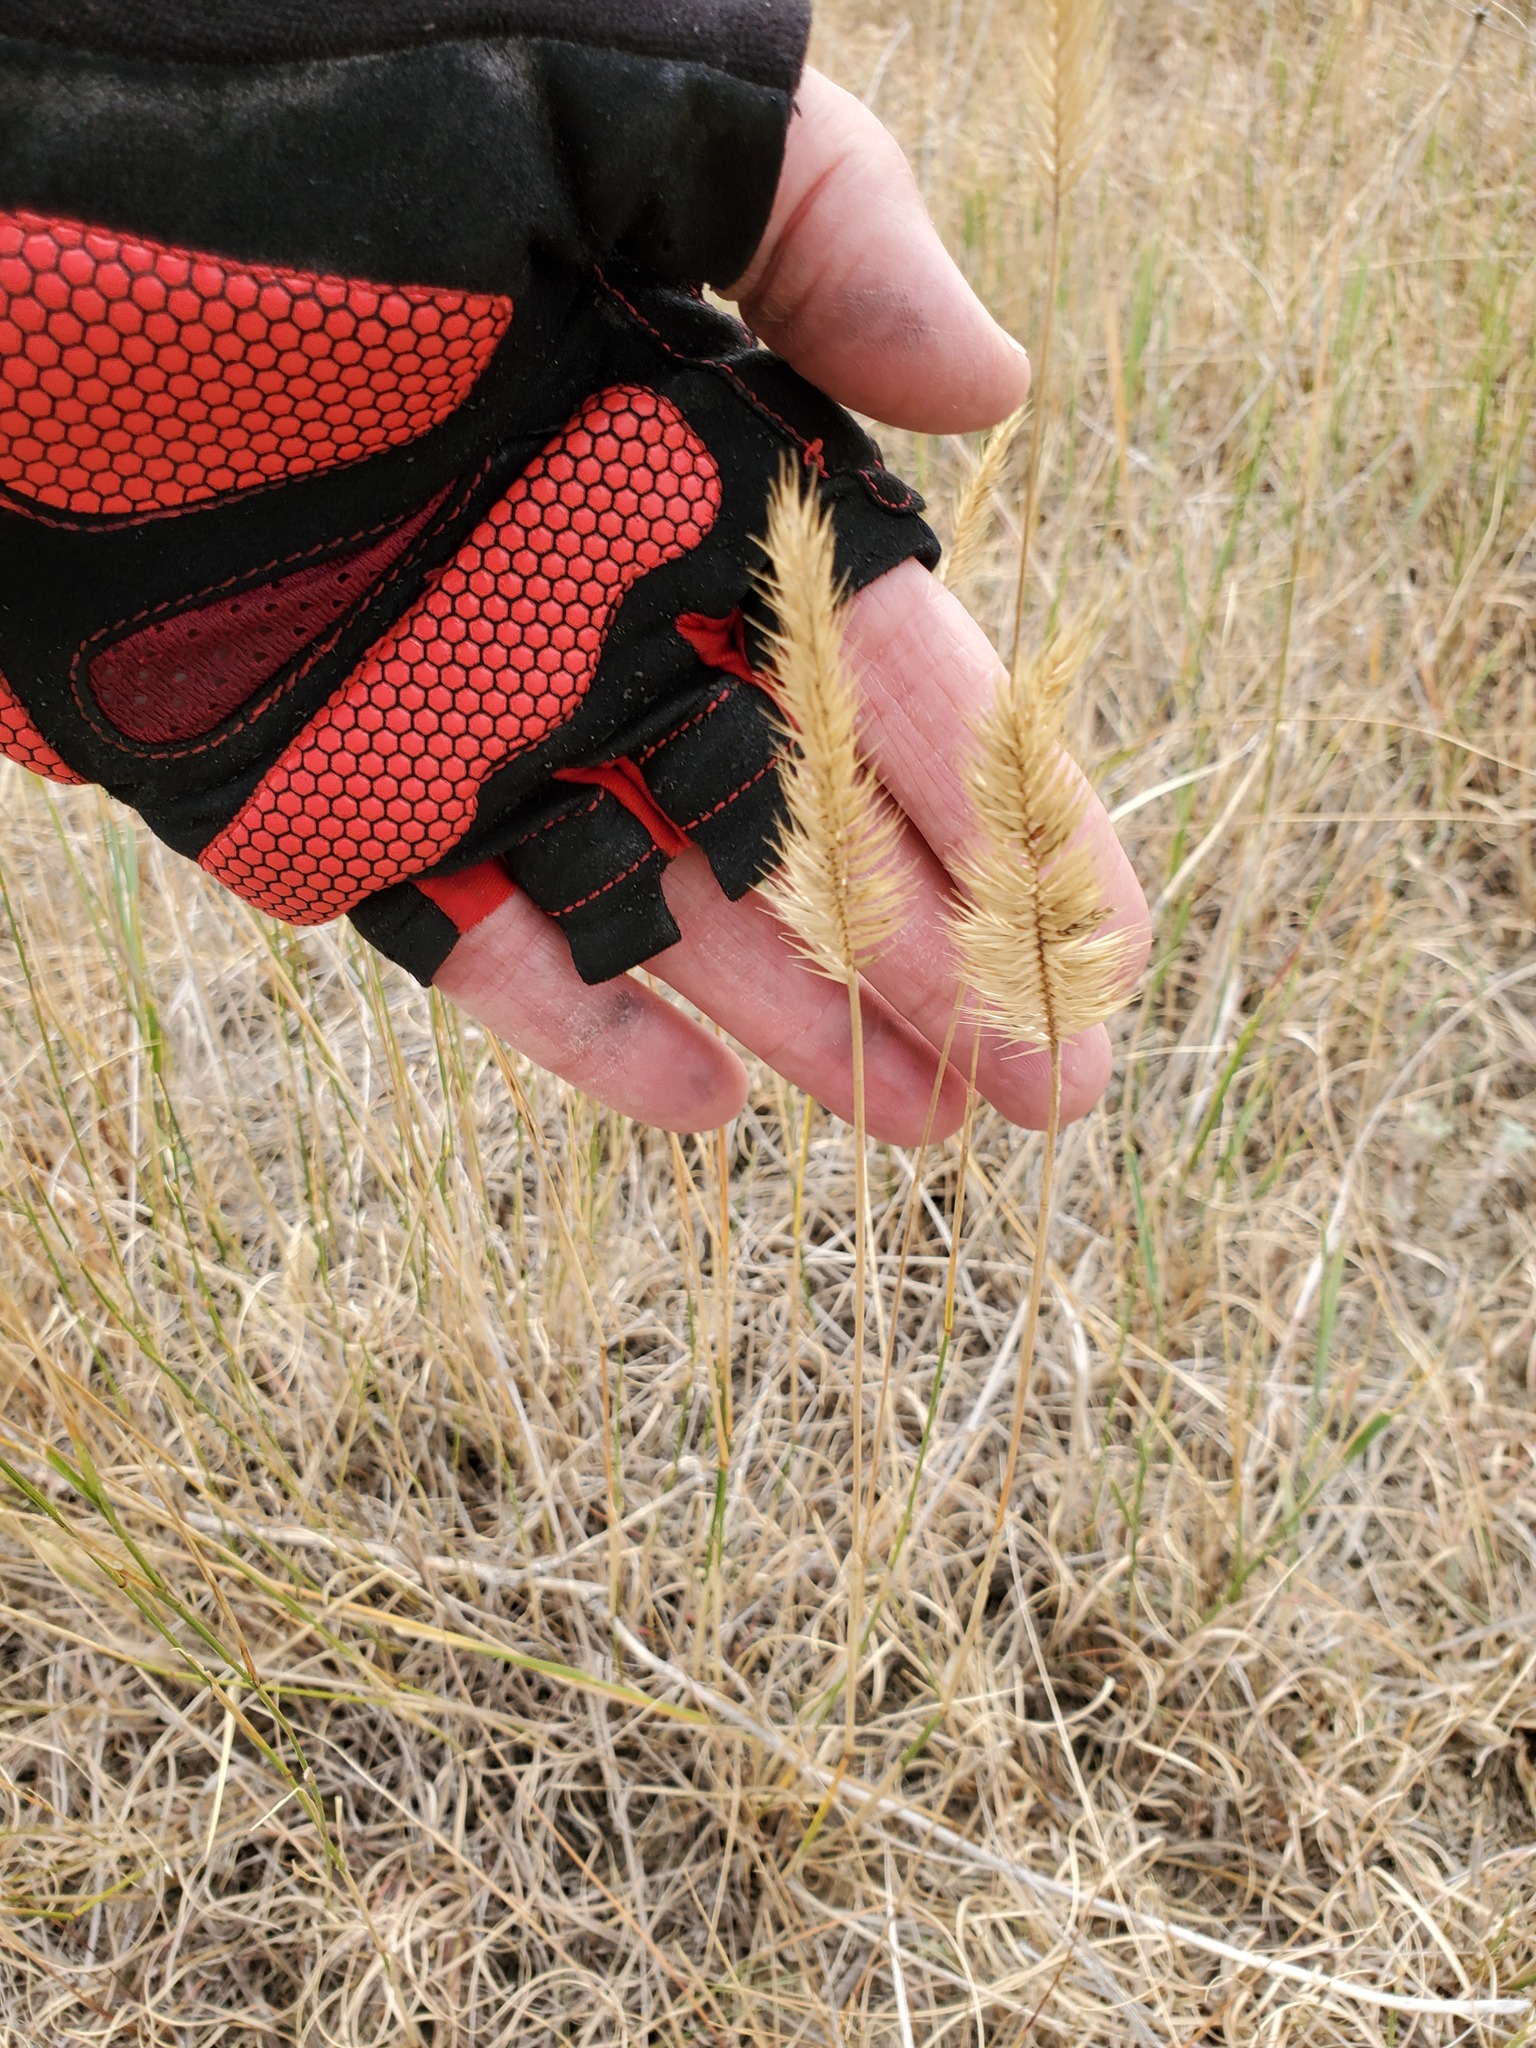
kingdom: Plantae
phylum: Tracheophyta
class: Liliopsida
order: Poales
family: Poaceae
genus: Agropyron
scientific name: Agropyron cristatum
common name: Crested wheatgrass
